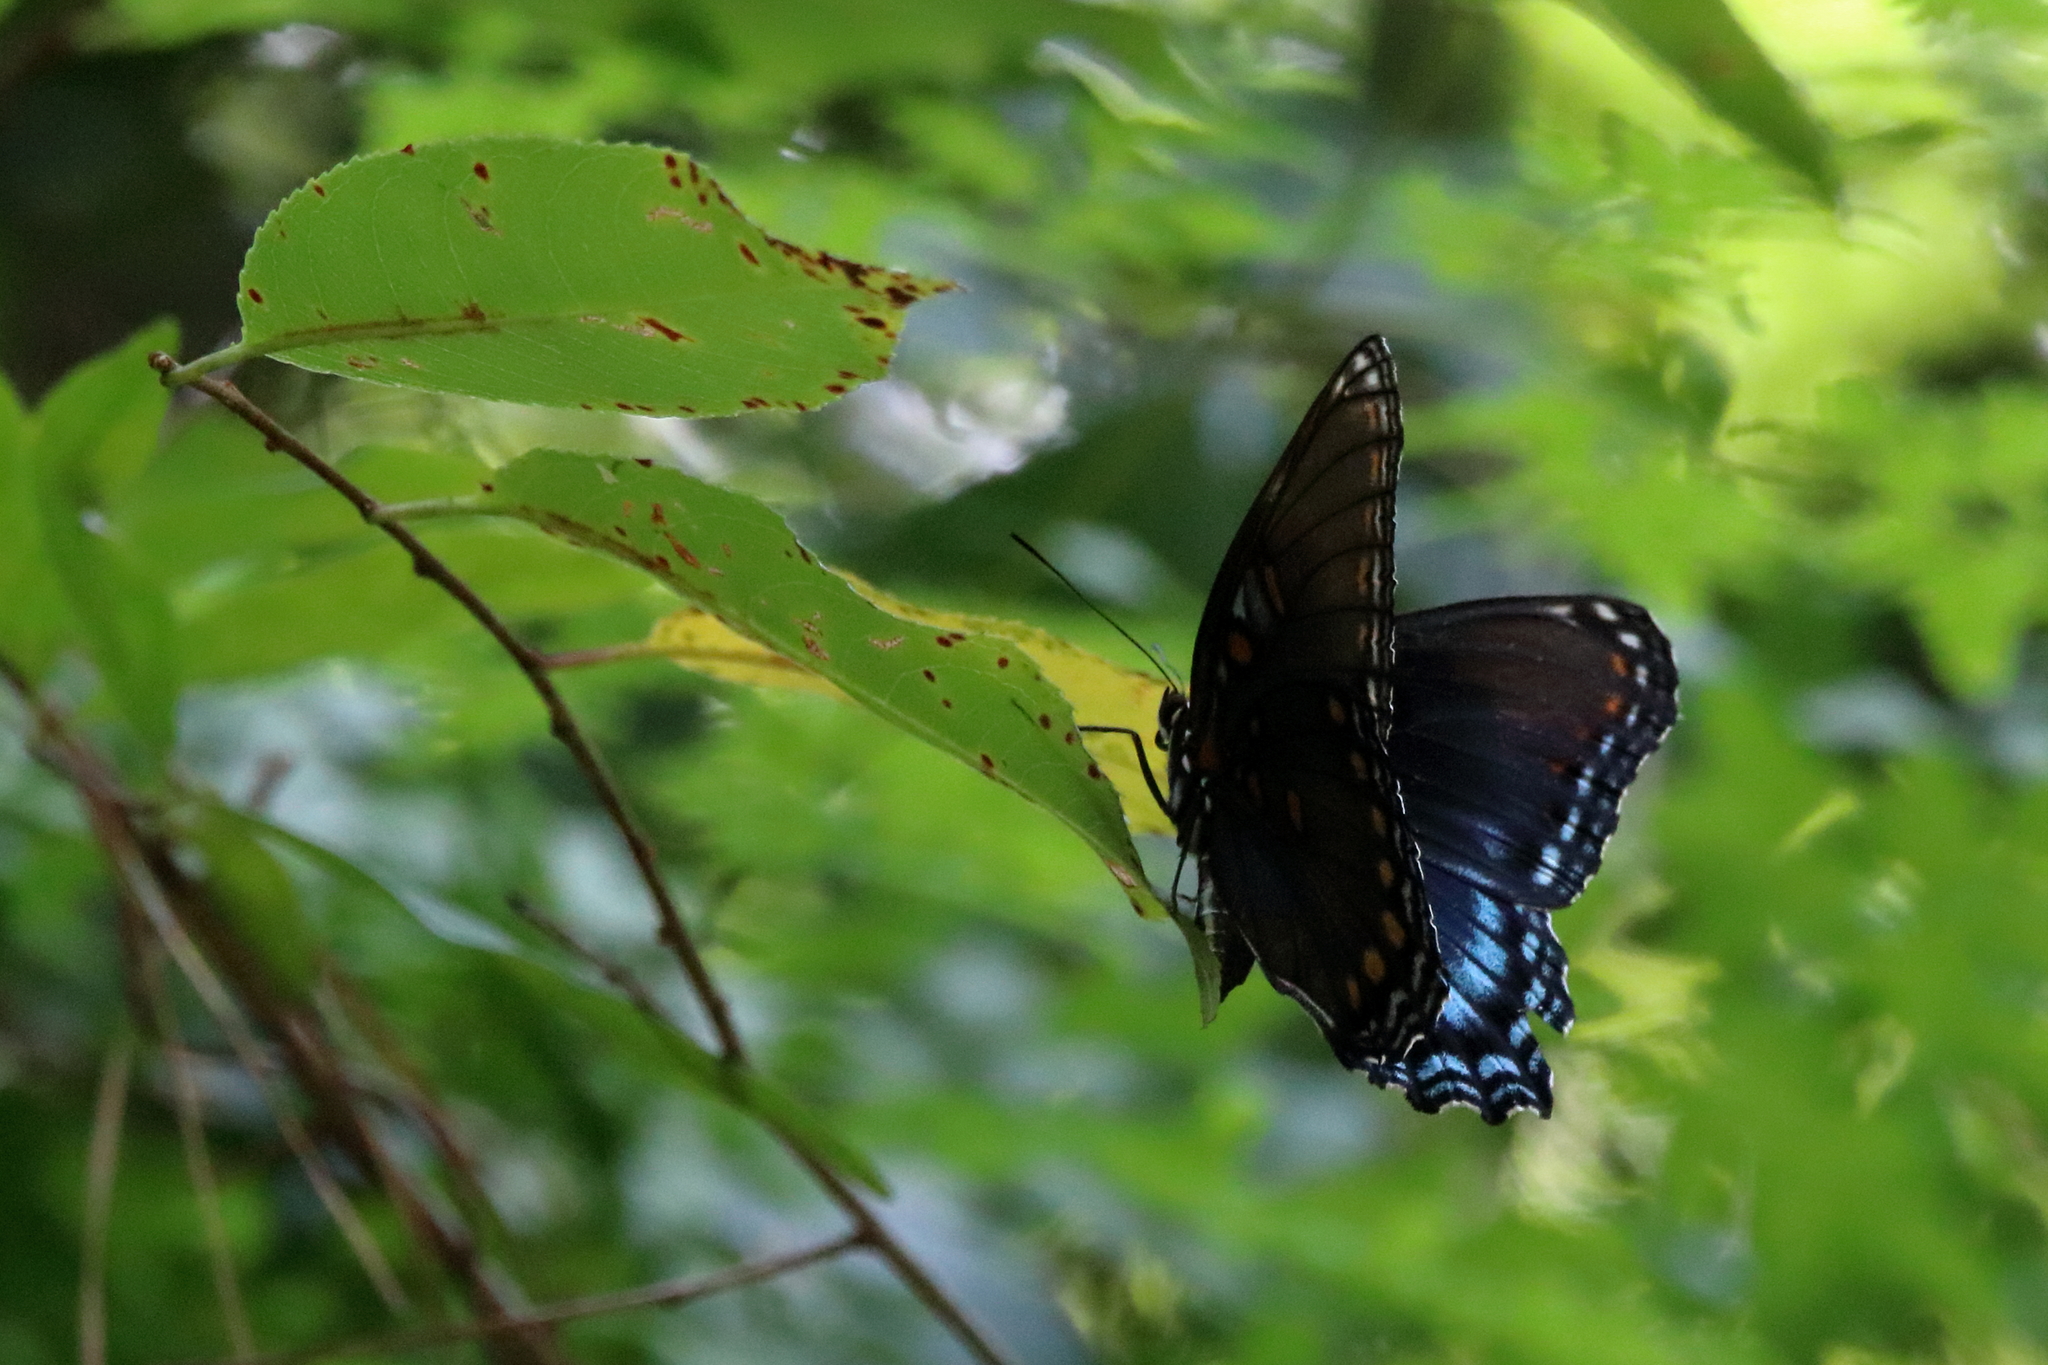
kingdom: Animalia
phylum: Arthropoda
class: Insecta
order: Lepidoptera
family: Nymphalidae
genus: Limenitis
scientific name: Limenitis astyanax
